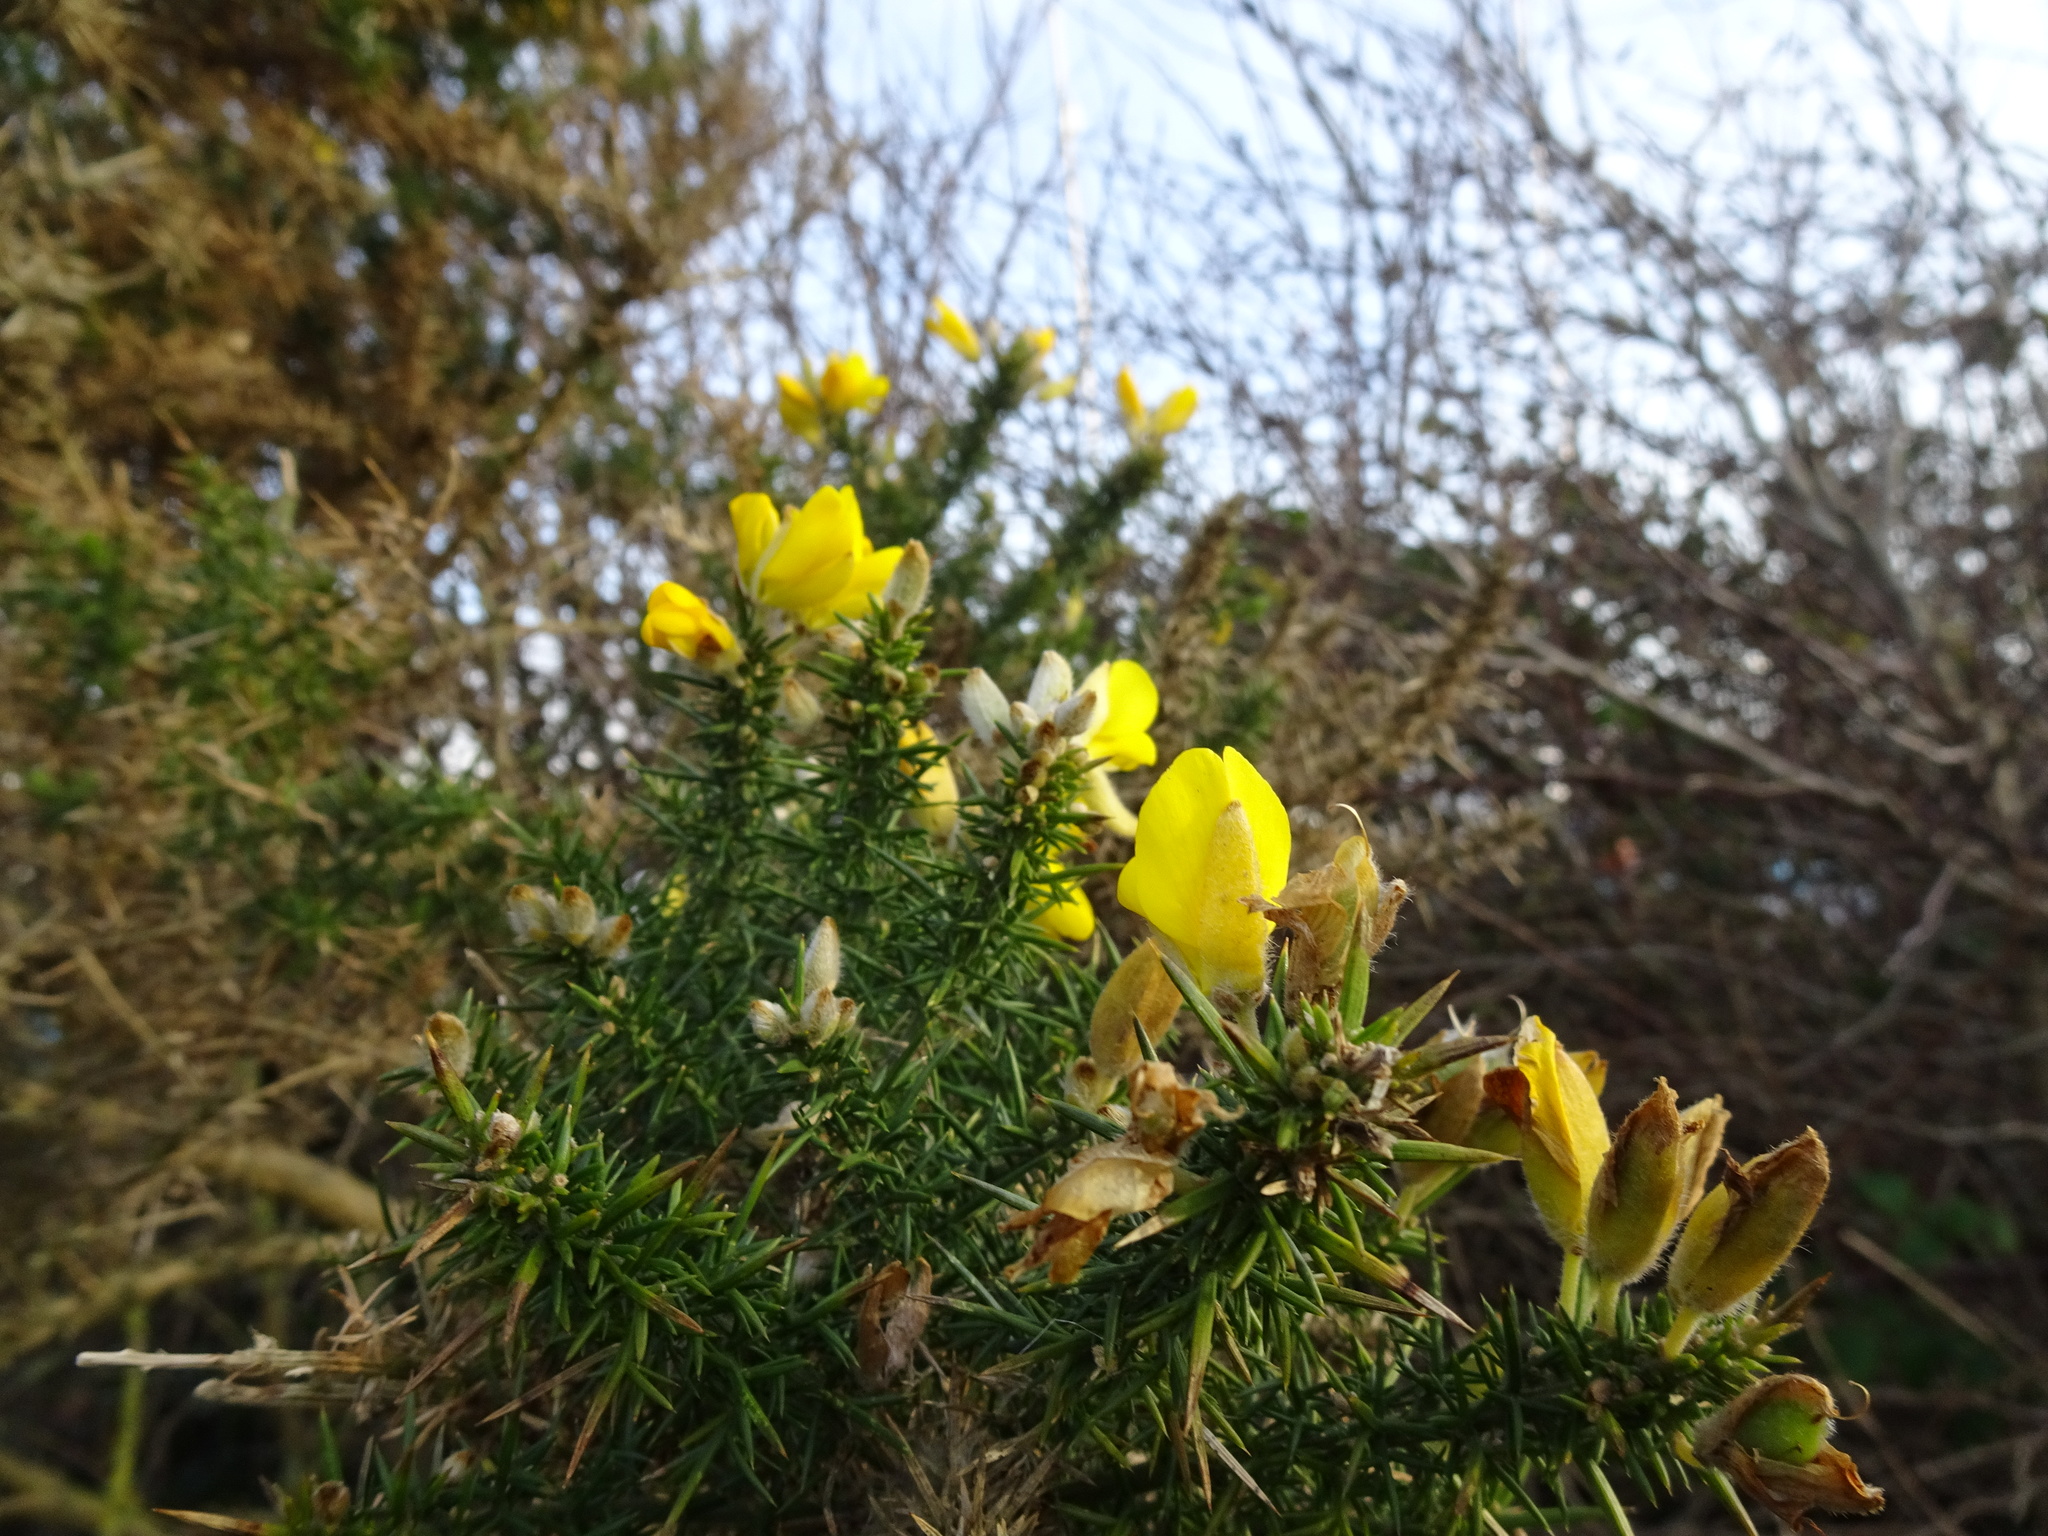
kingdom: Plantae
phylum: Tracheophyta
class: Magnoliopsida
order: Fabales
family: Fabaceae
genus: Ulex
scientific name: Ulex europaeus
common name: Common gorse
